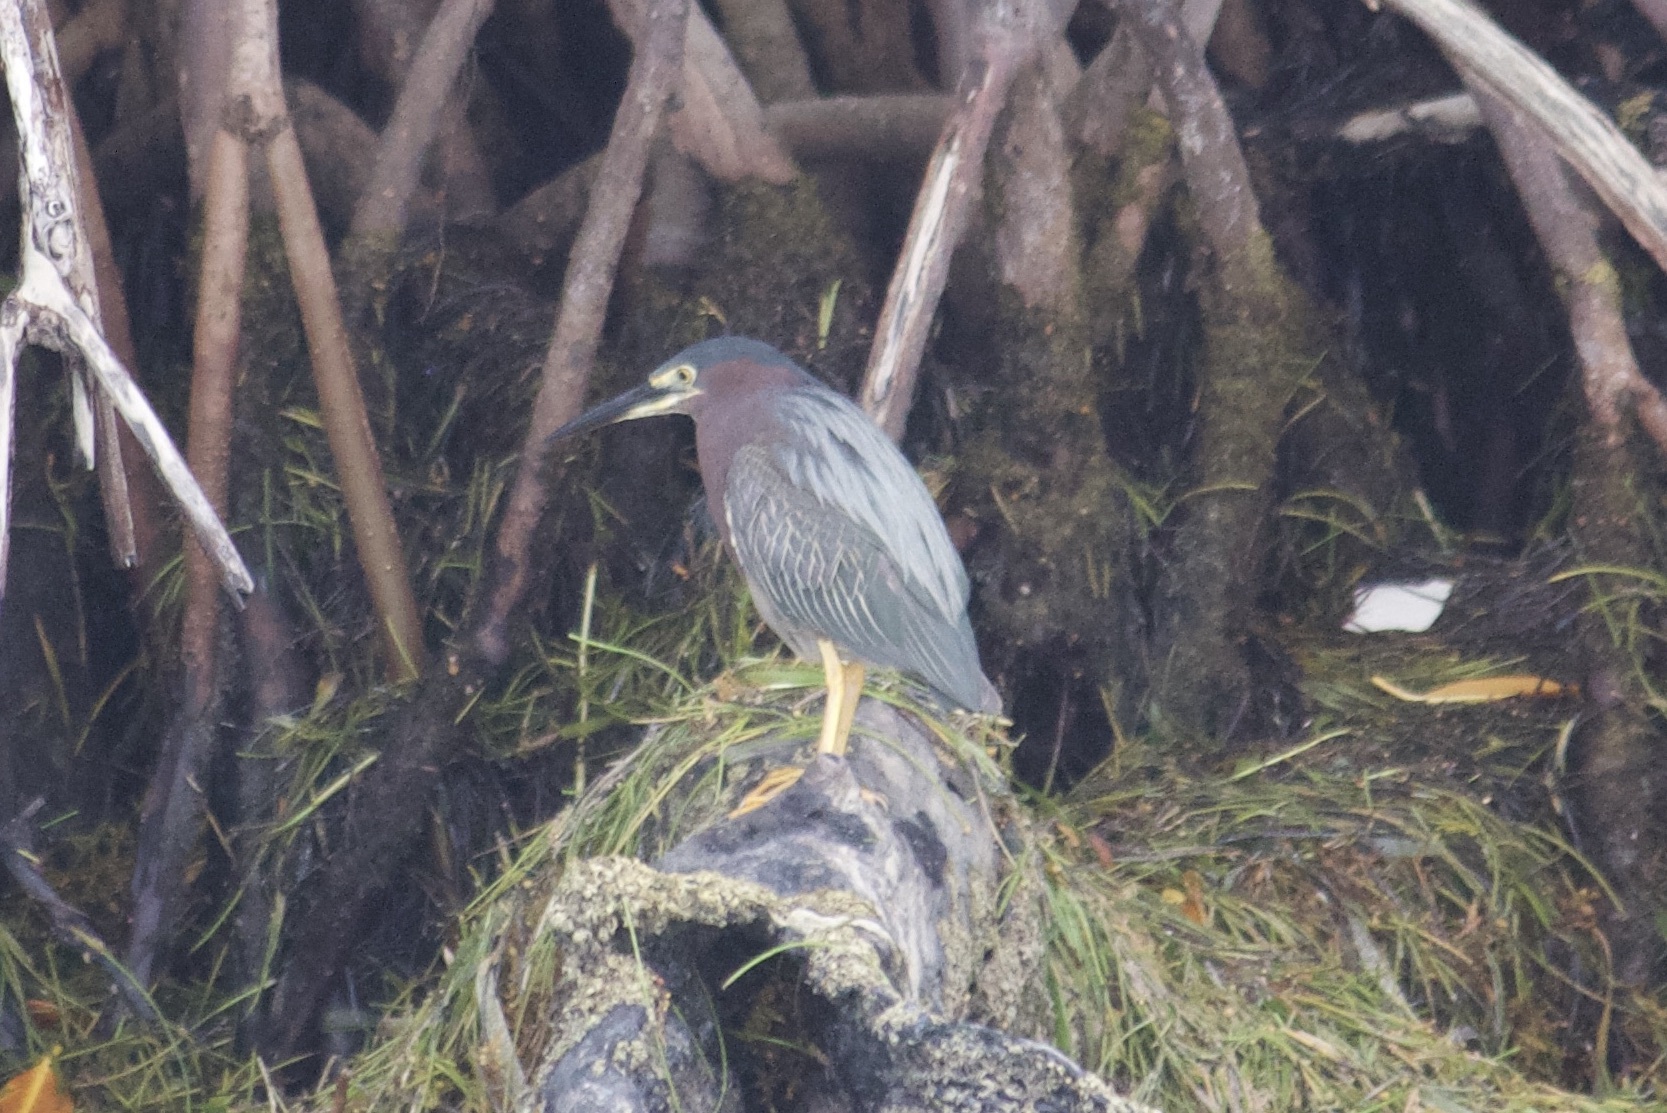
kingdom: Animalia
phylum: Chordata
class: Aves
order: Pelecaniformes
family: Ardeidae
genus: Butorides
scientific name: Butorides virescens
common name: Green heron
